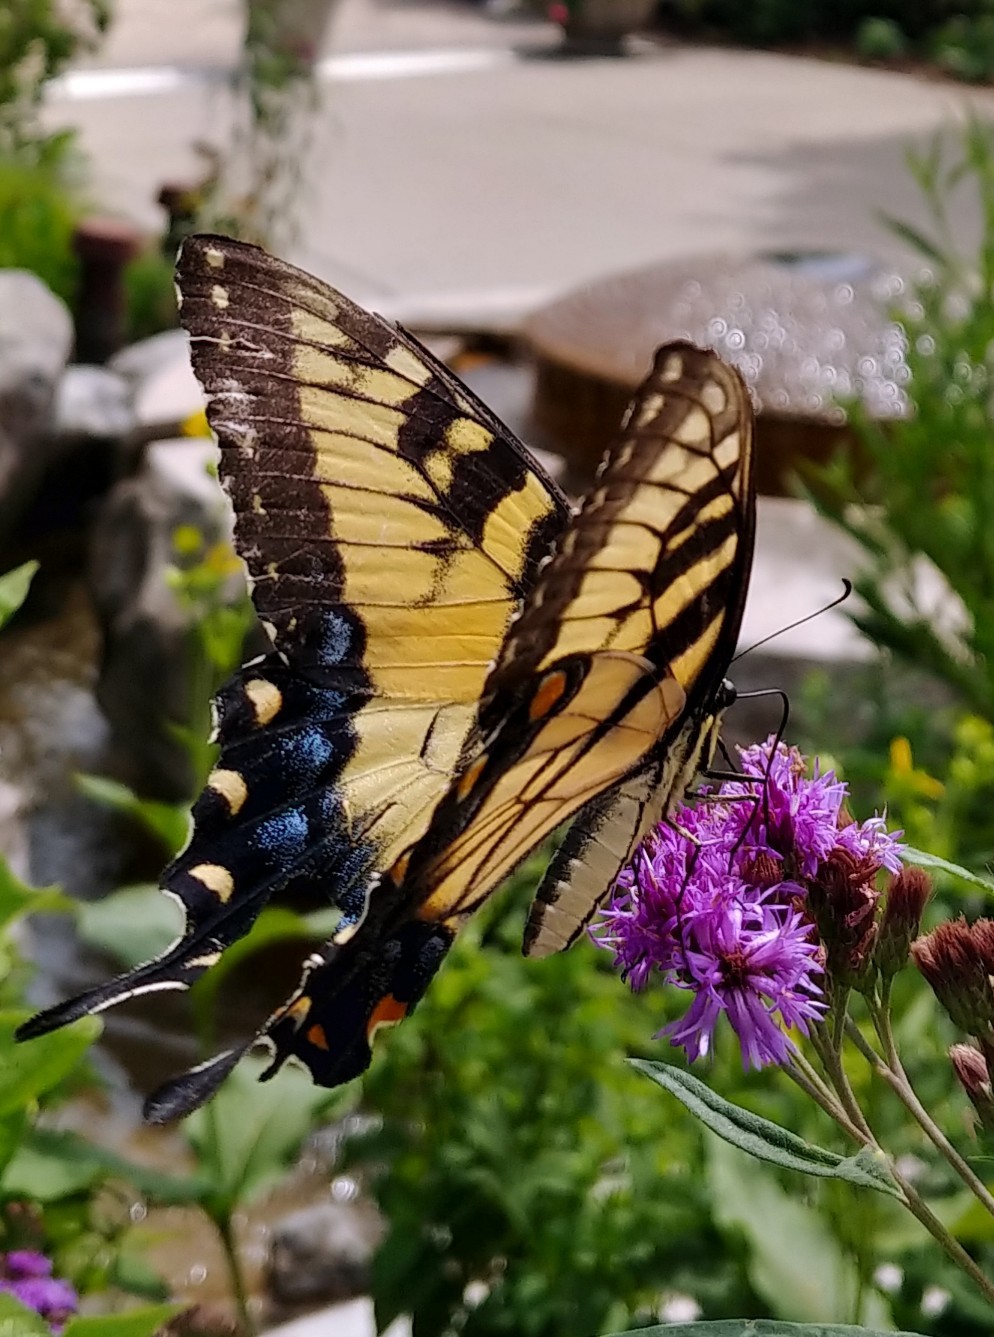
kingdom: Animalia
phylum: Arthropoda
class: Insecta
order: Lepidoptera
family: Papilionidae
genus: Papilio
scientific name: Papilio glaucus
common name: Tiger swallowtail
